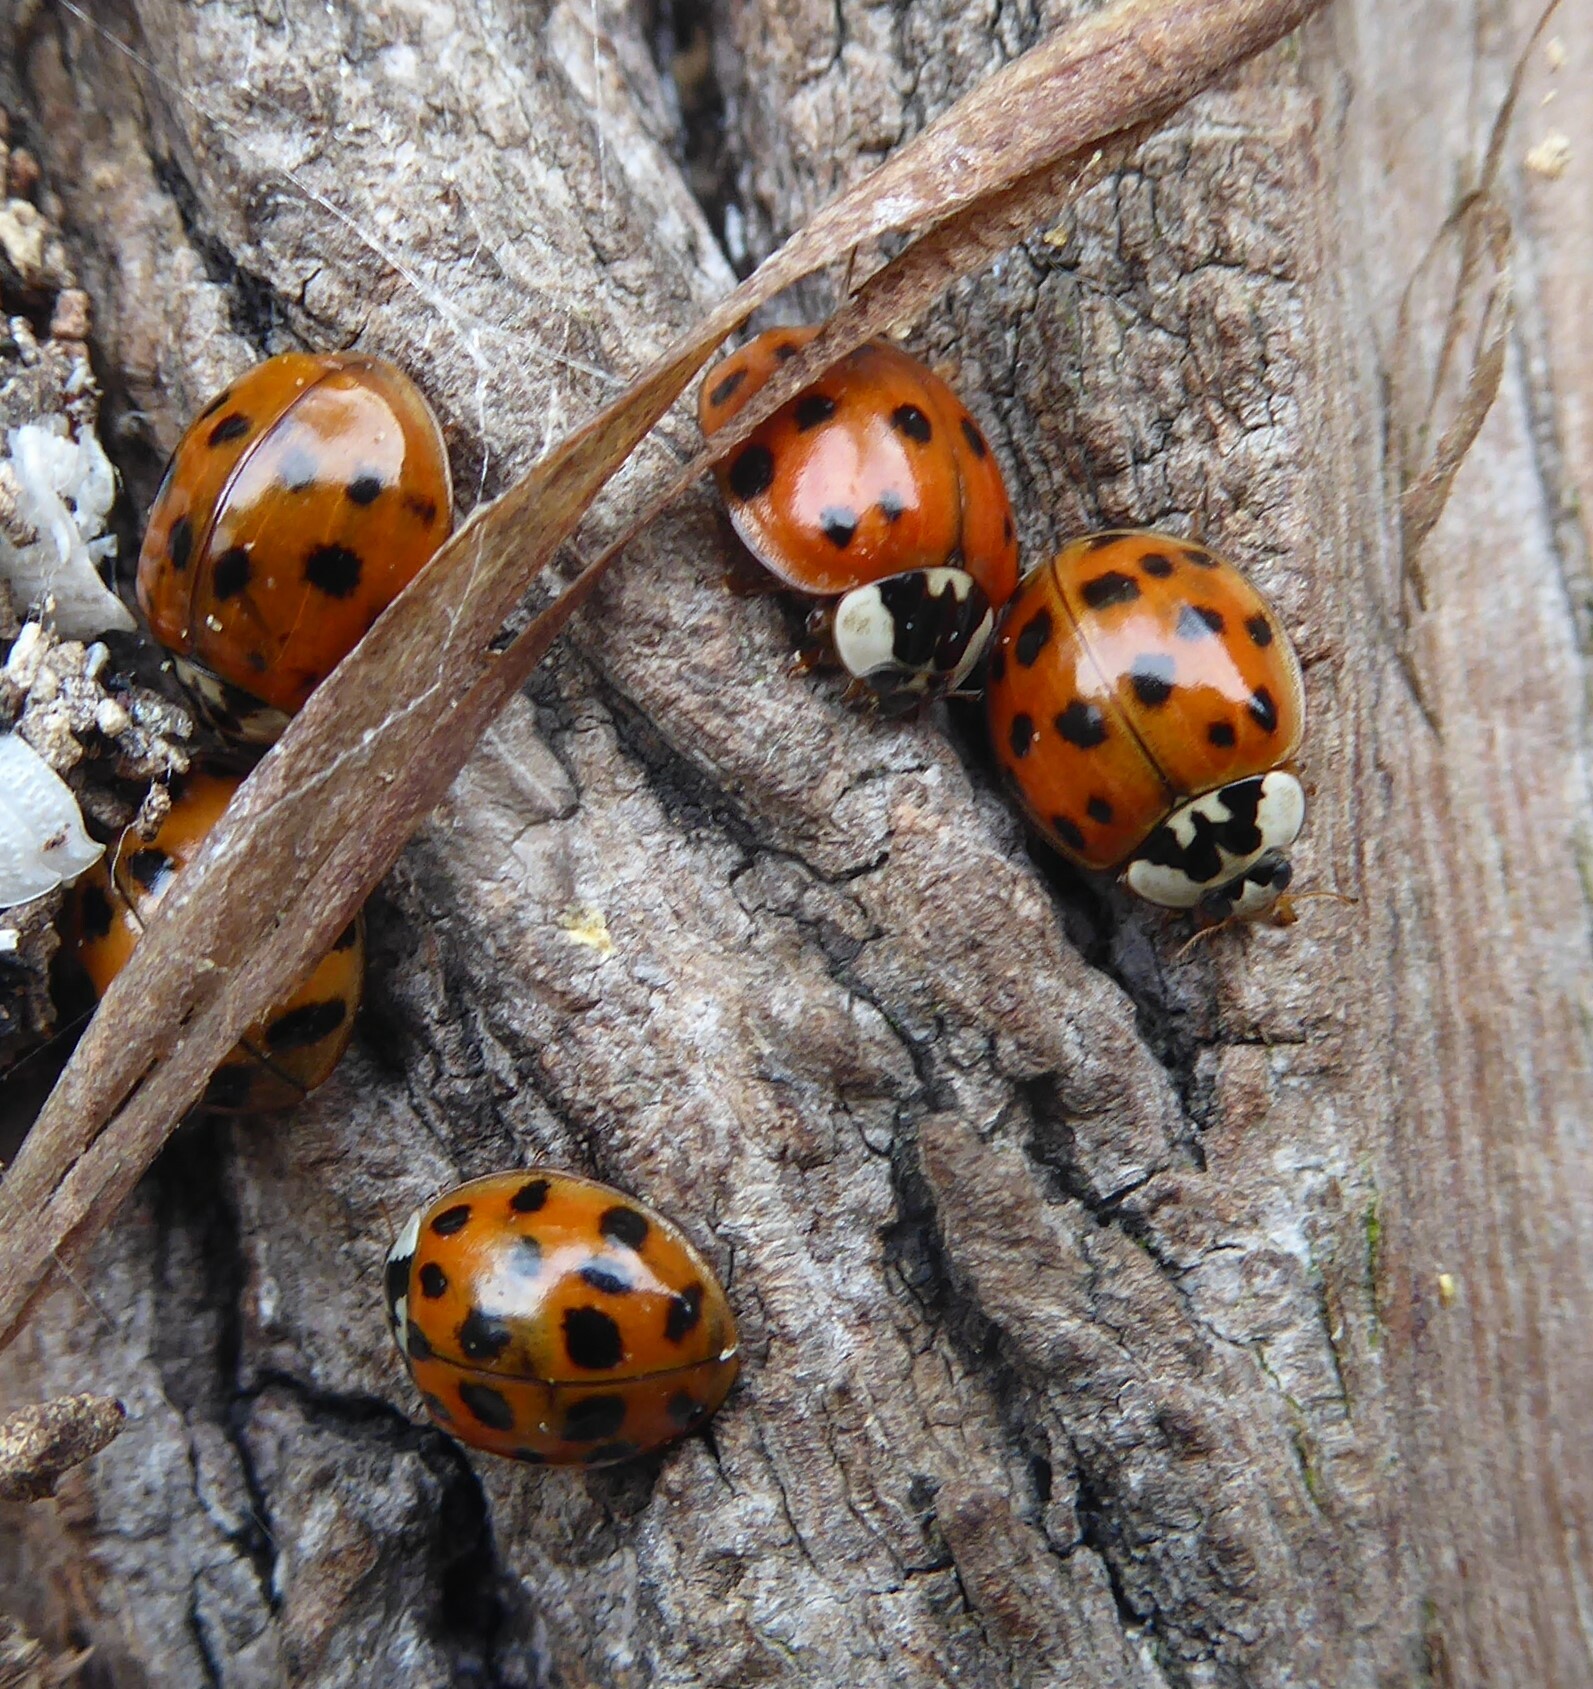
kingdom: Animalia
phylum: Arthropoda
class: Insecta
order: Coleoptera
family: Coccinellidae
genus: Harmonia
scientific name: Harmonia axyridis
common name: Harlequin ladybird
